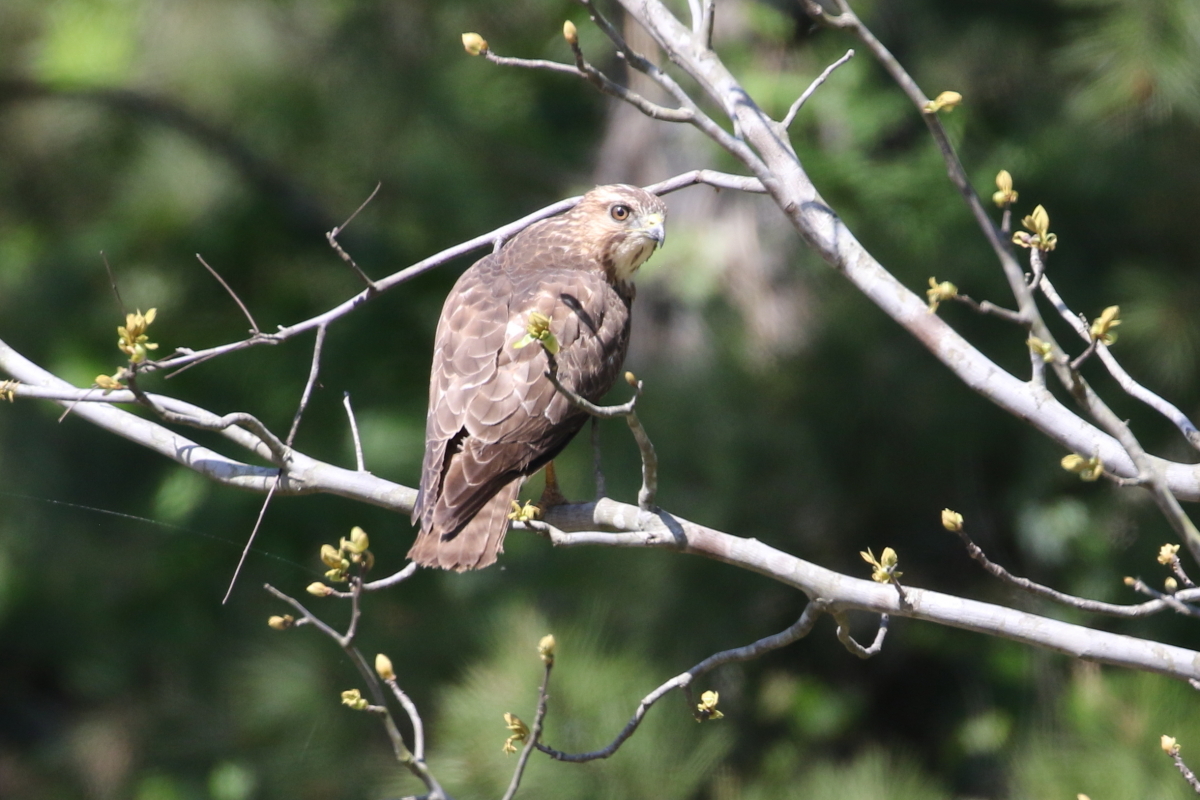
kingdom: Animalia
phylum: Chordata
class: Aves
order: Accipitriformes
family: Accipitridae
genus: Buteo
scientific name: Buteo platypterus
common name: Broad-winged hawk
